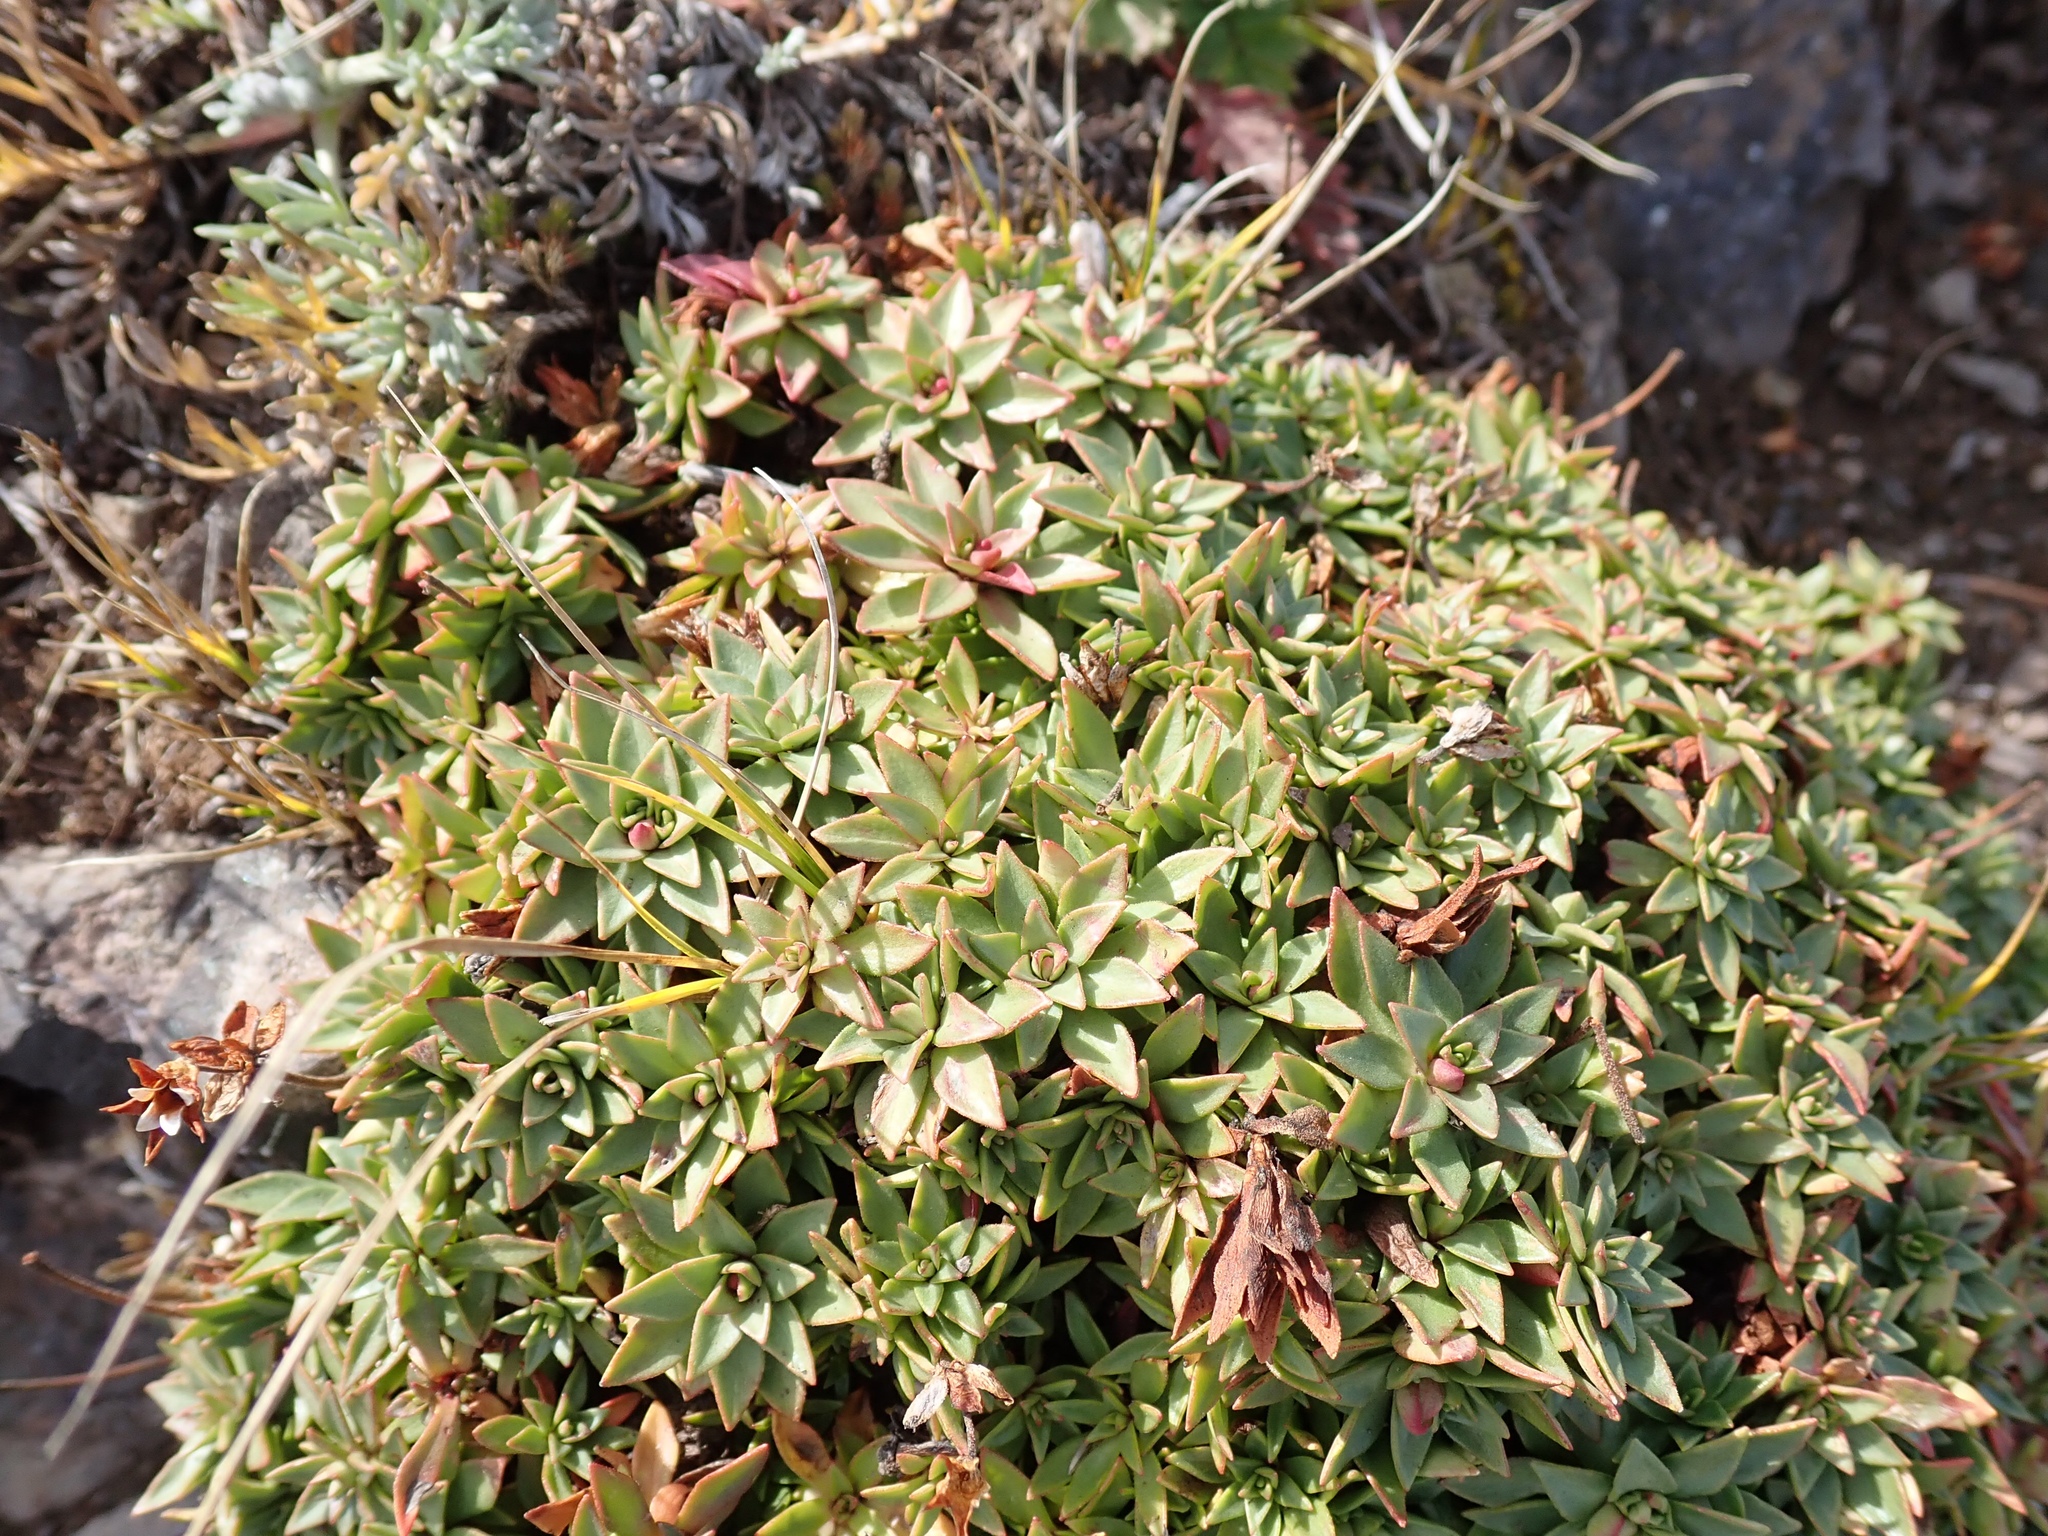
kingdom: Plantae
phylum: Tracheophyta
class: Magnoliopsida
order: Ericales
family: Primulaceae
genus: Androsace
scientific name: Androsace laevigata
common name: Cliff dwarf-primrose
